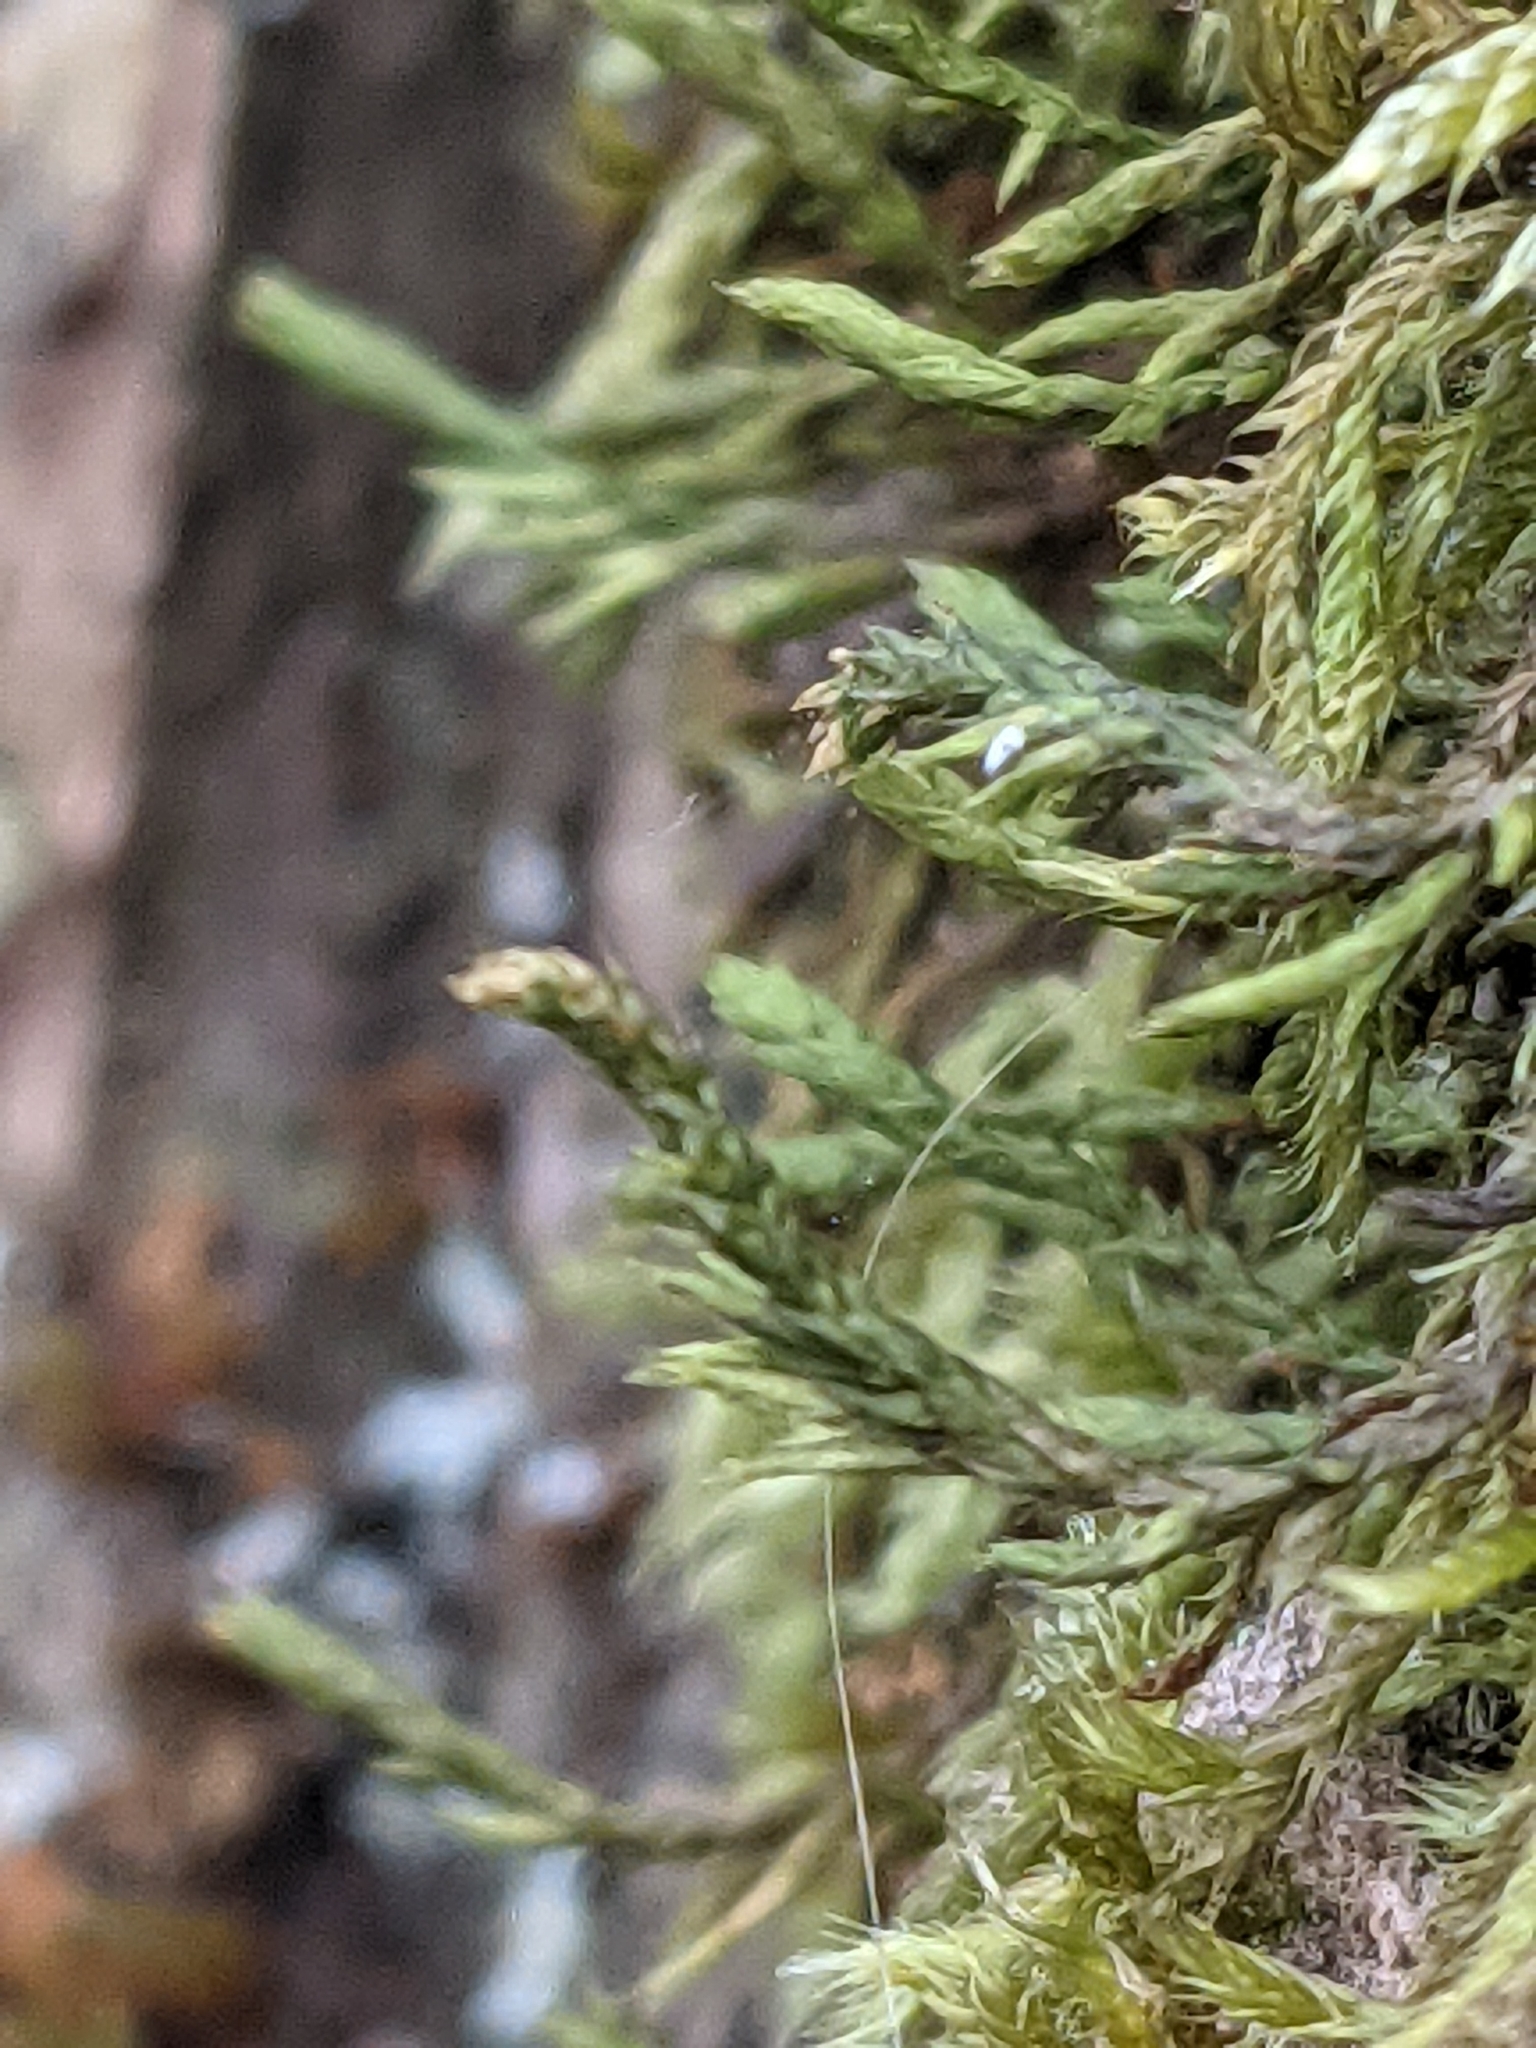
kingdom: Plantae
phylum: Bryophyta
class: Bryopsida
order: Hypnales
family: Cryphaeaceae
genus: Cryphaea
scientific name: Cryphaea heteromalla
